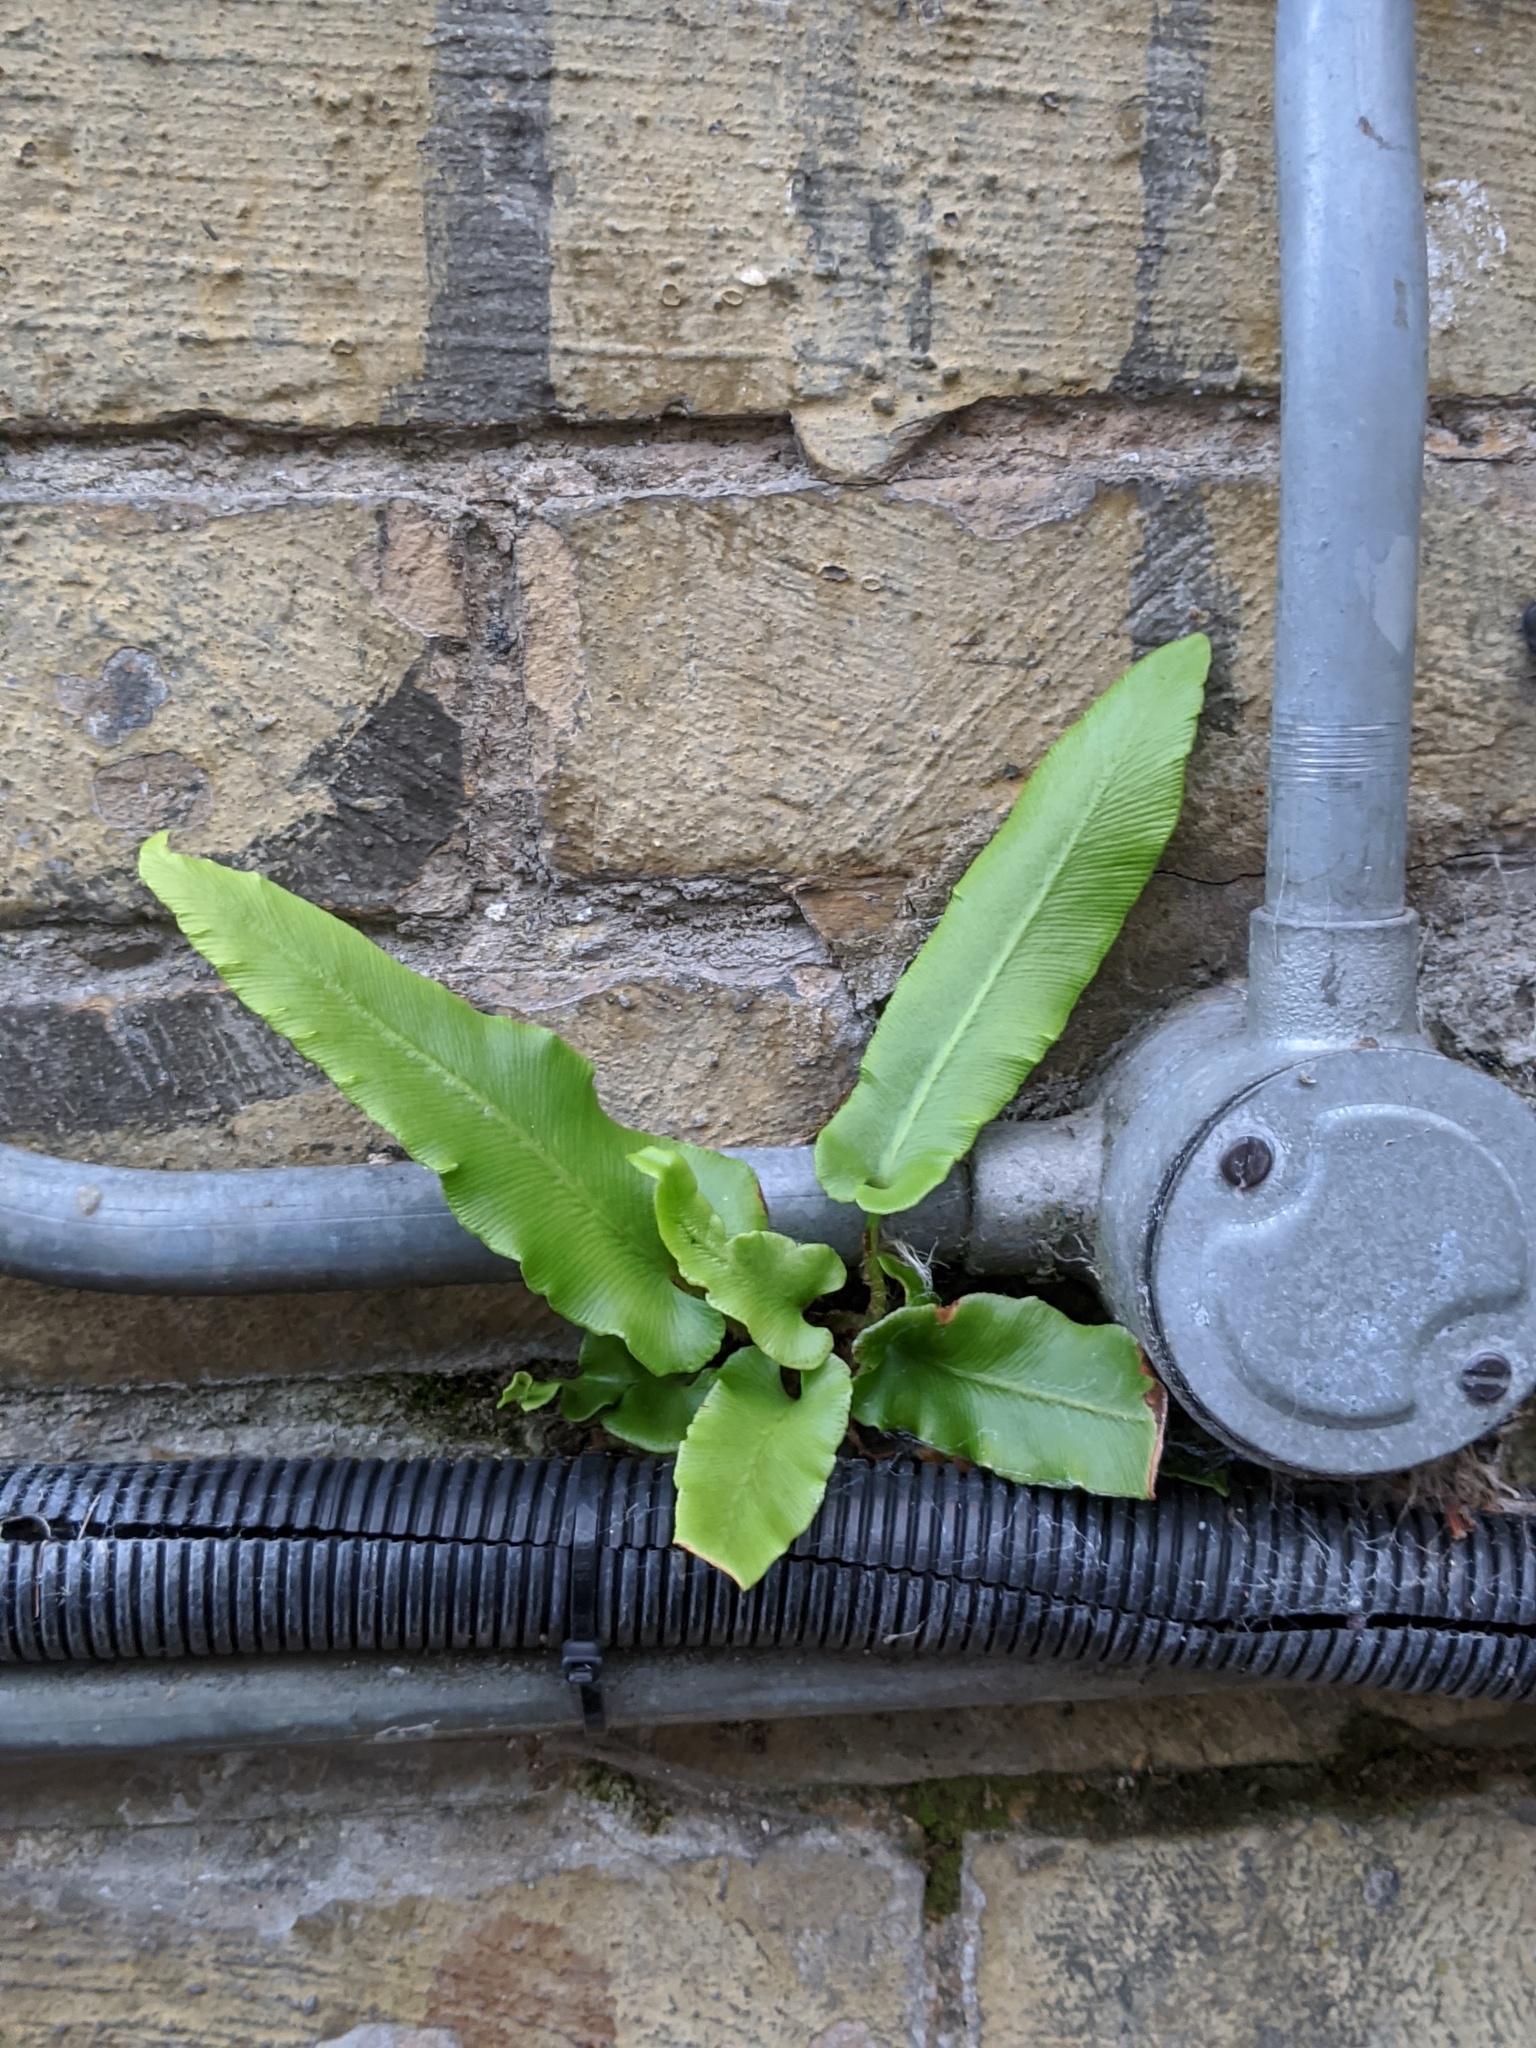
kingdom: Plantae
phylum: Tracheophyta
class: Polypodiopsida
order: Polypodiales
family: Aspleniaceae
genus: Asplenium
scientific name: Asplenium scolopendrium
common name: Hart's-tongue fern
